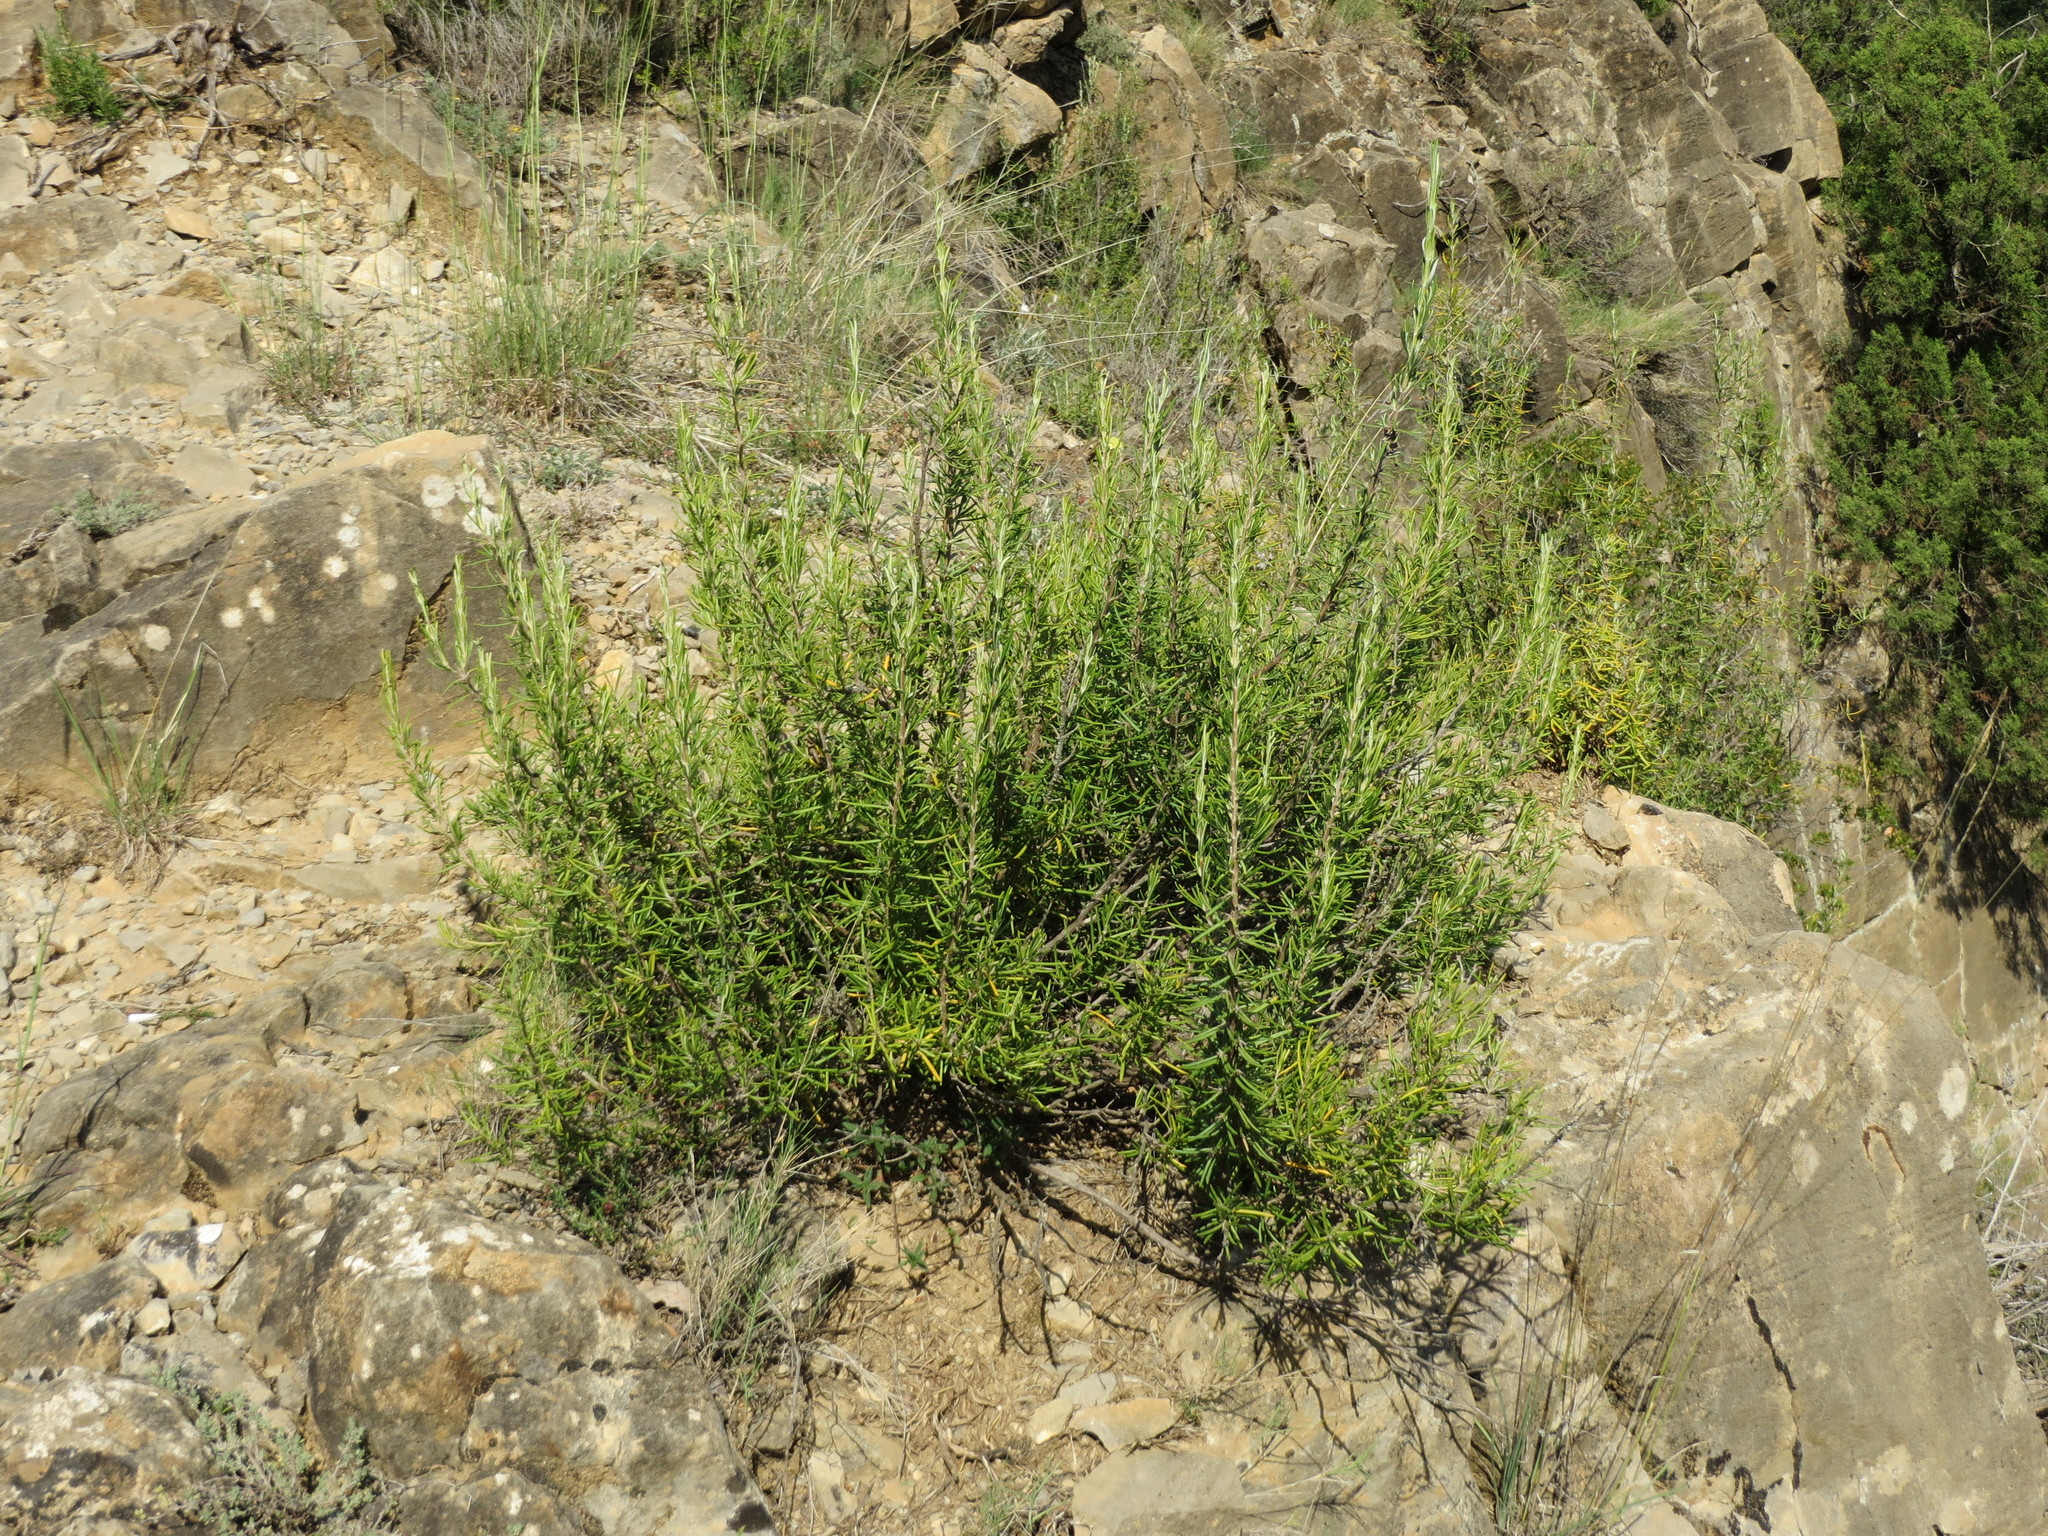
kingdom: Plantae
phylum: Tracheophyta
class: Magnoliopsida
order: Lamiales
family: Lamiaceae
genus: Salvia
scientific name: Salvia rosmarinus
